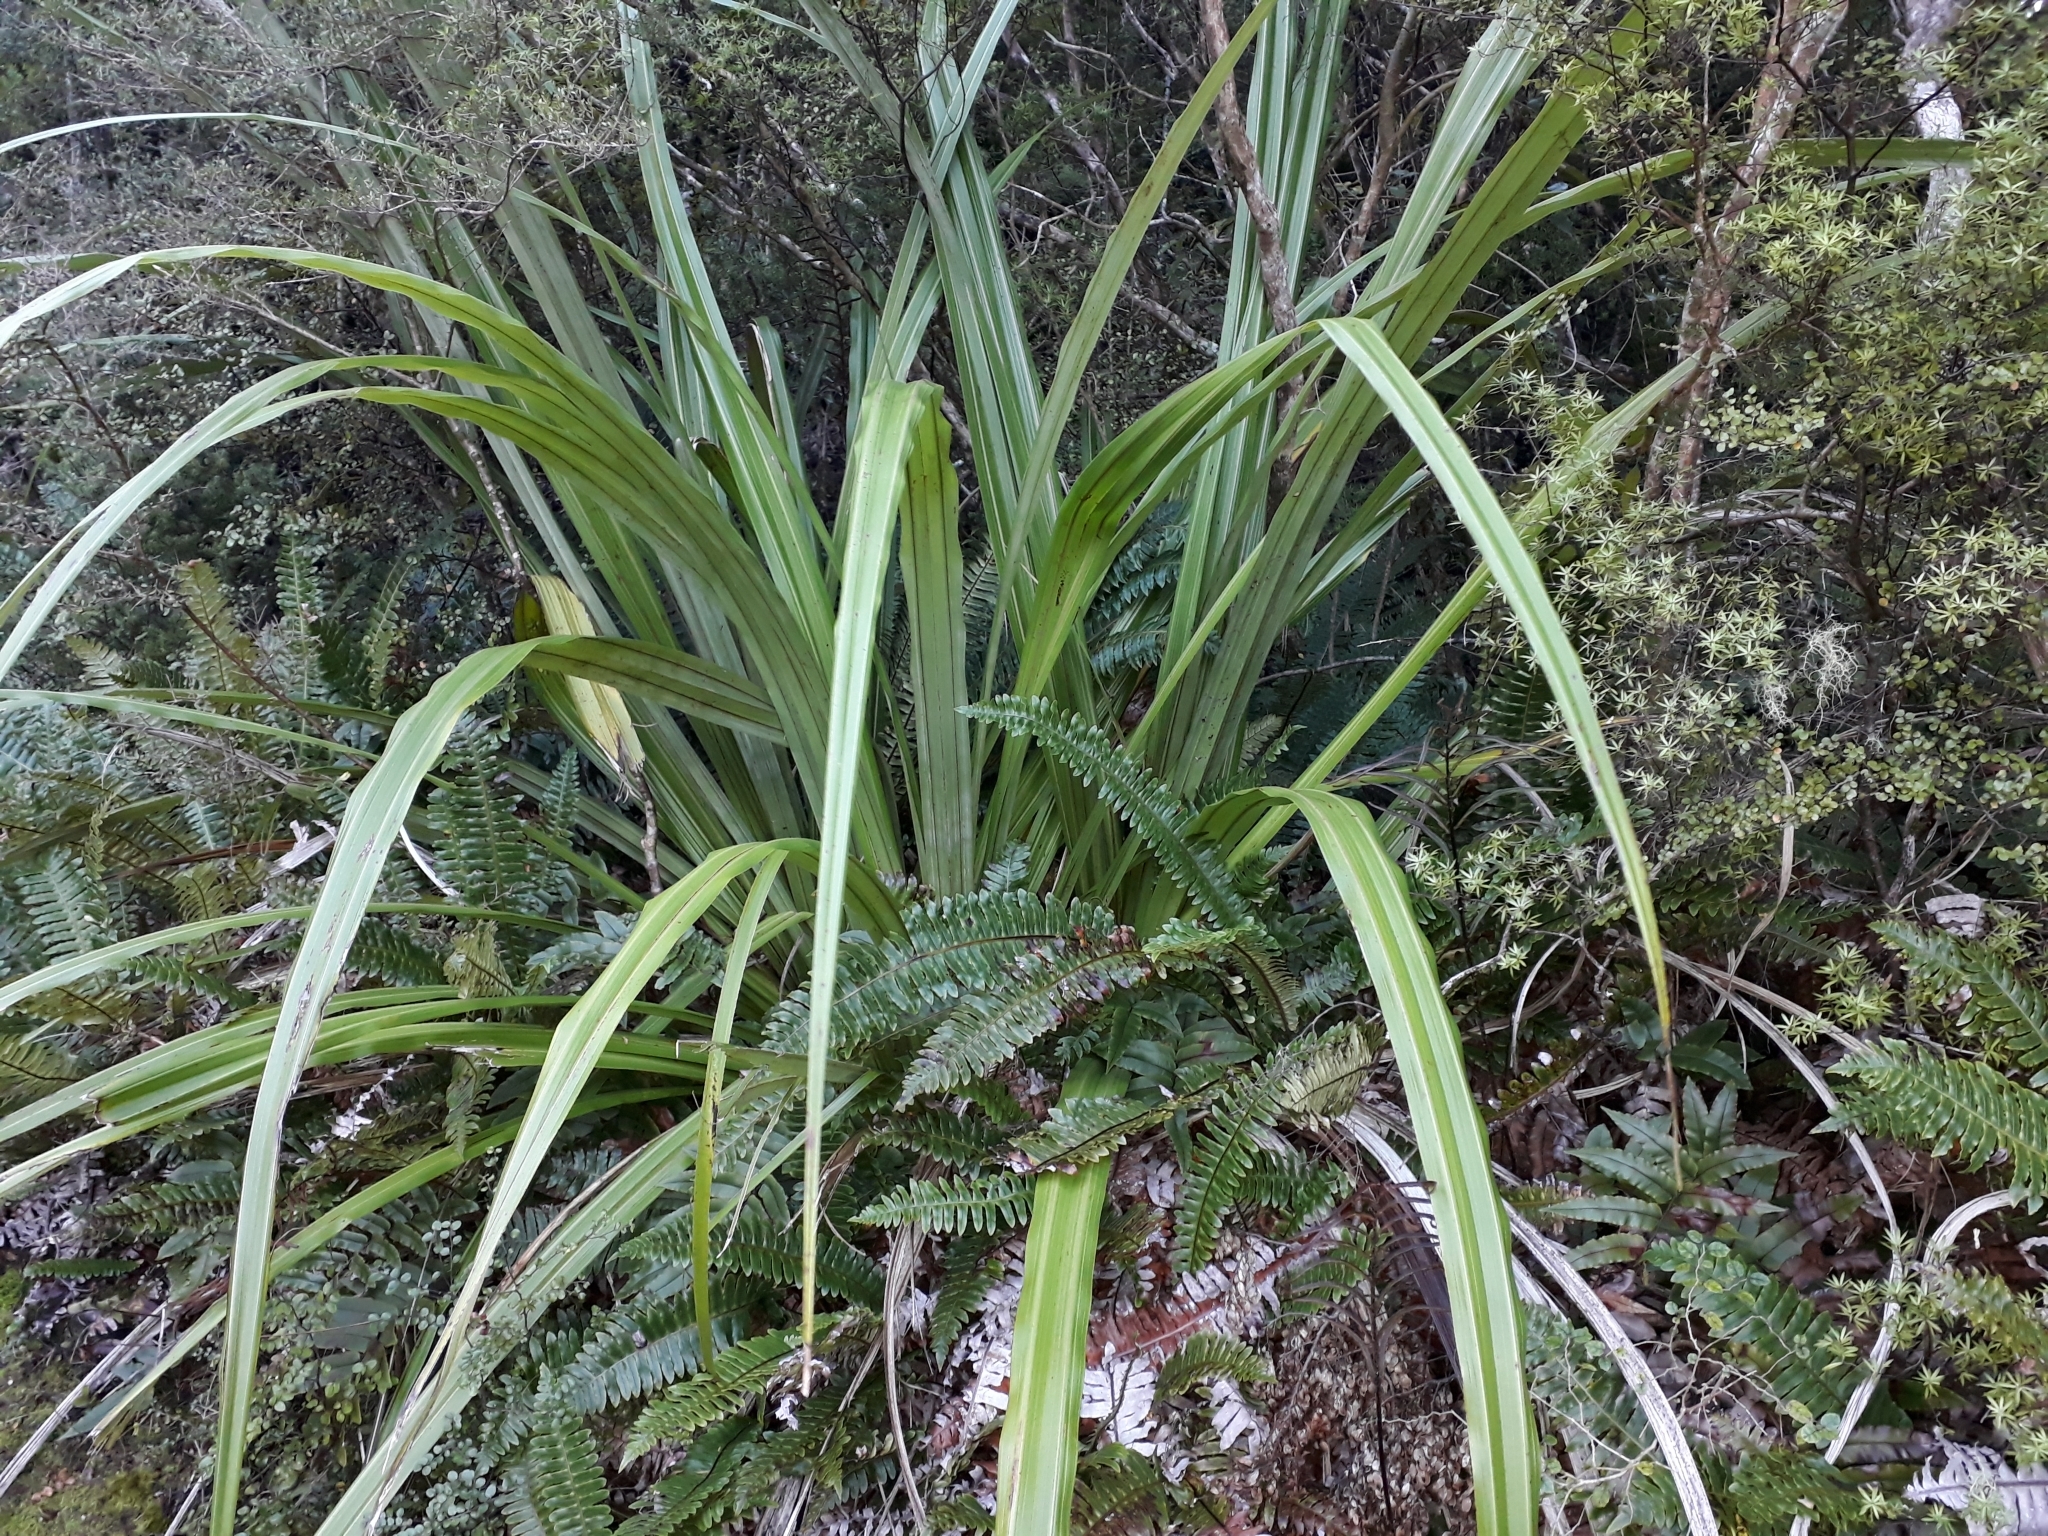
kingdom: Plantae
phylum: Tracheophyta
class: Liliopsida
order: Asparagales
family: Asteliaceae
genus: Astelia
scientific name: Astelia fragrans
